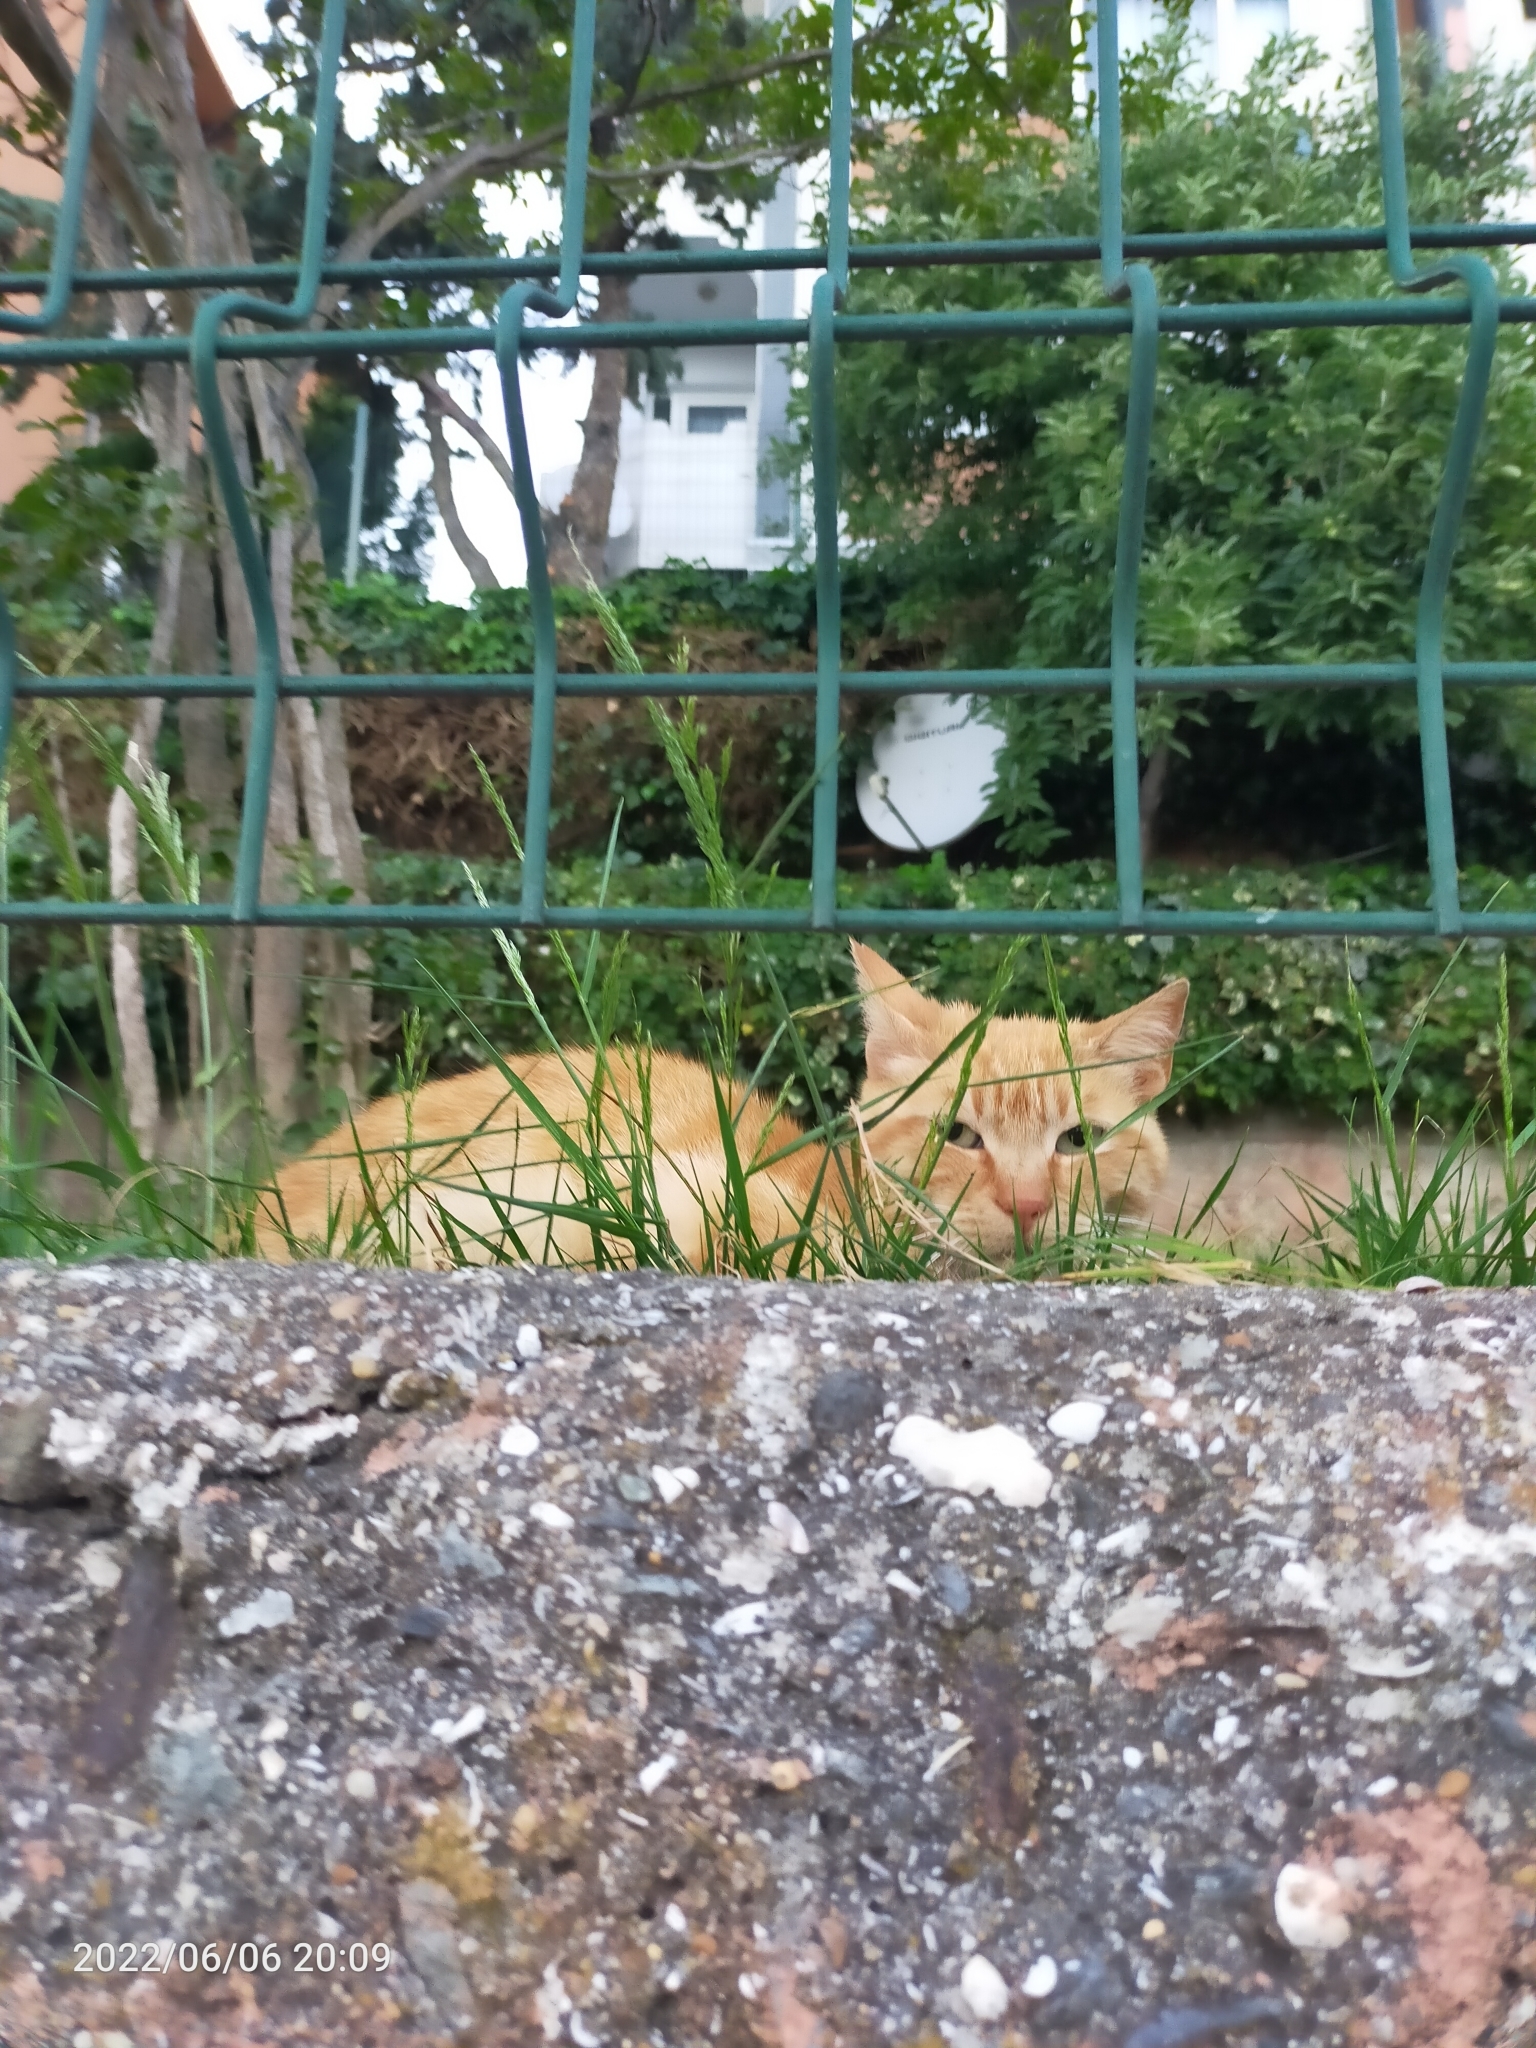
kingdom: Animalia
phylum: Chordata
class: Mammalia
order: Carnivora
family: Felidae
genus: Felis
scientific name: Felis catus
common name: Domestic cat
